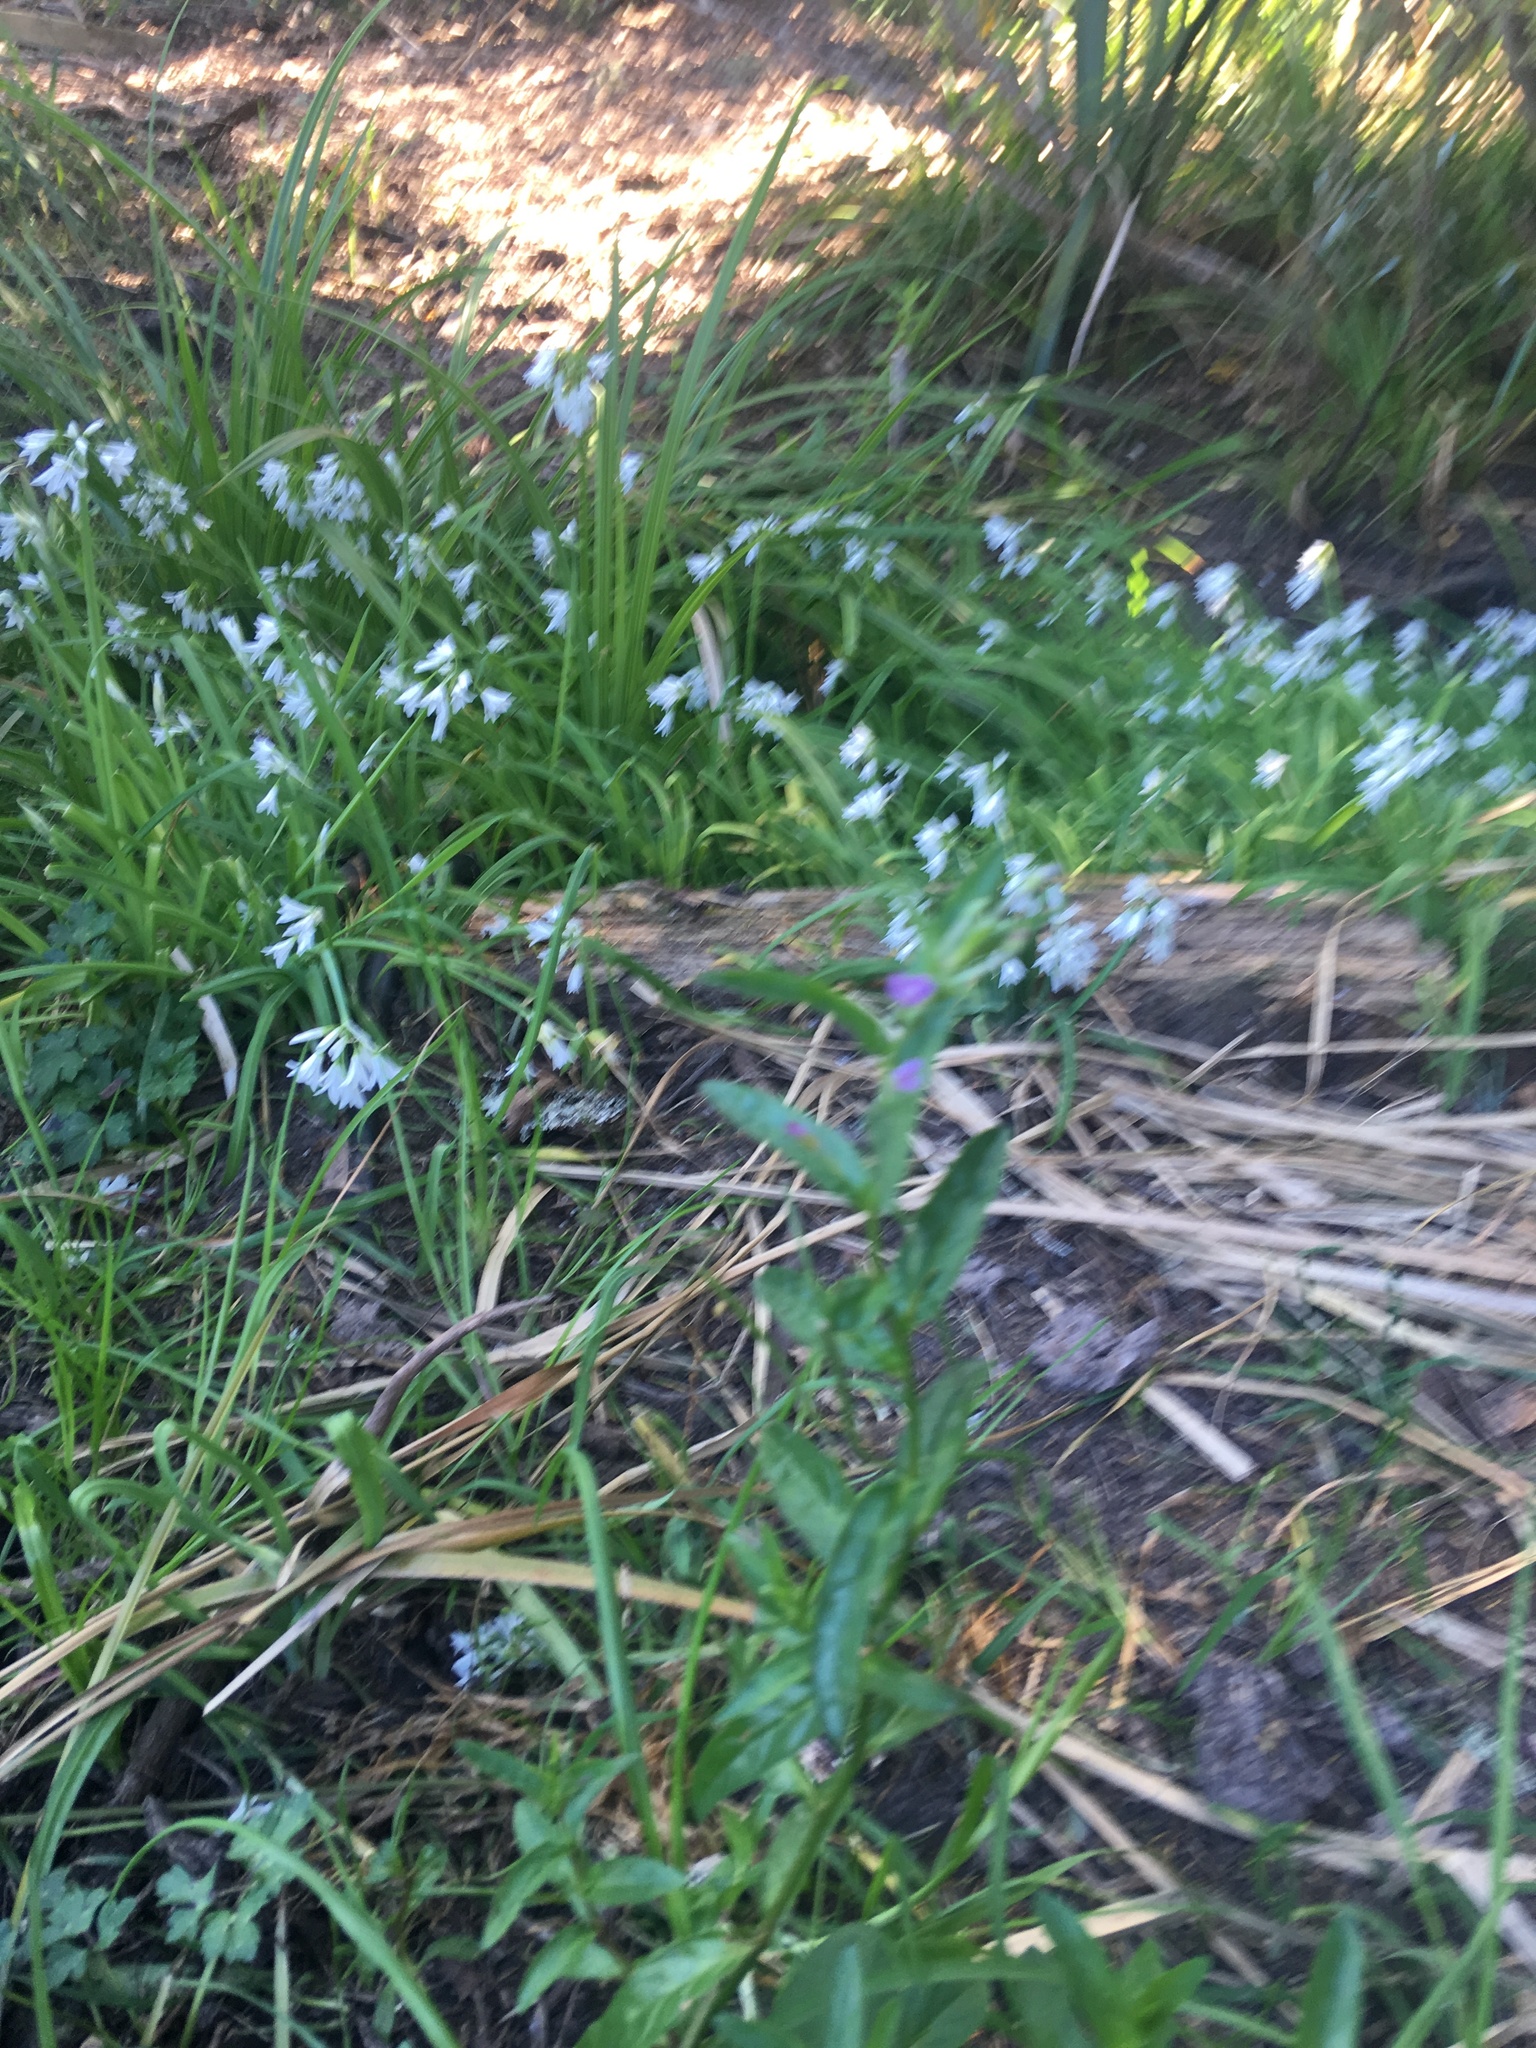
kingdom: Plantae
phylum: Tracheophyta
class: Liliopsida
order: Asparagales
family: Amaryllidaceae
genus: Allium
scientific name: Allium triquetrum
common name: Three-cornered garlic
